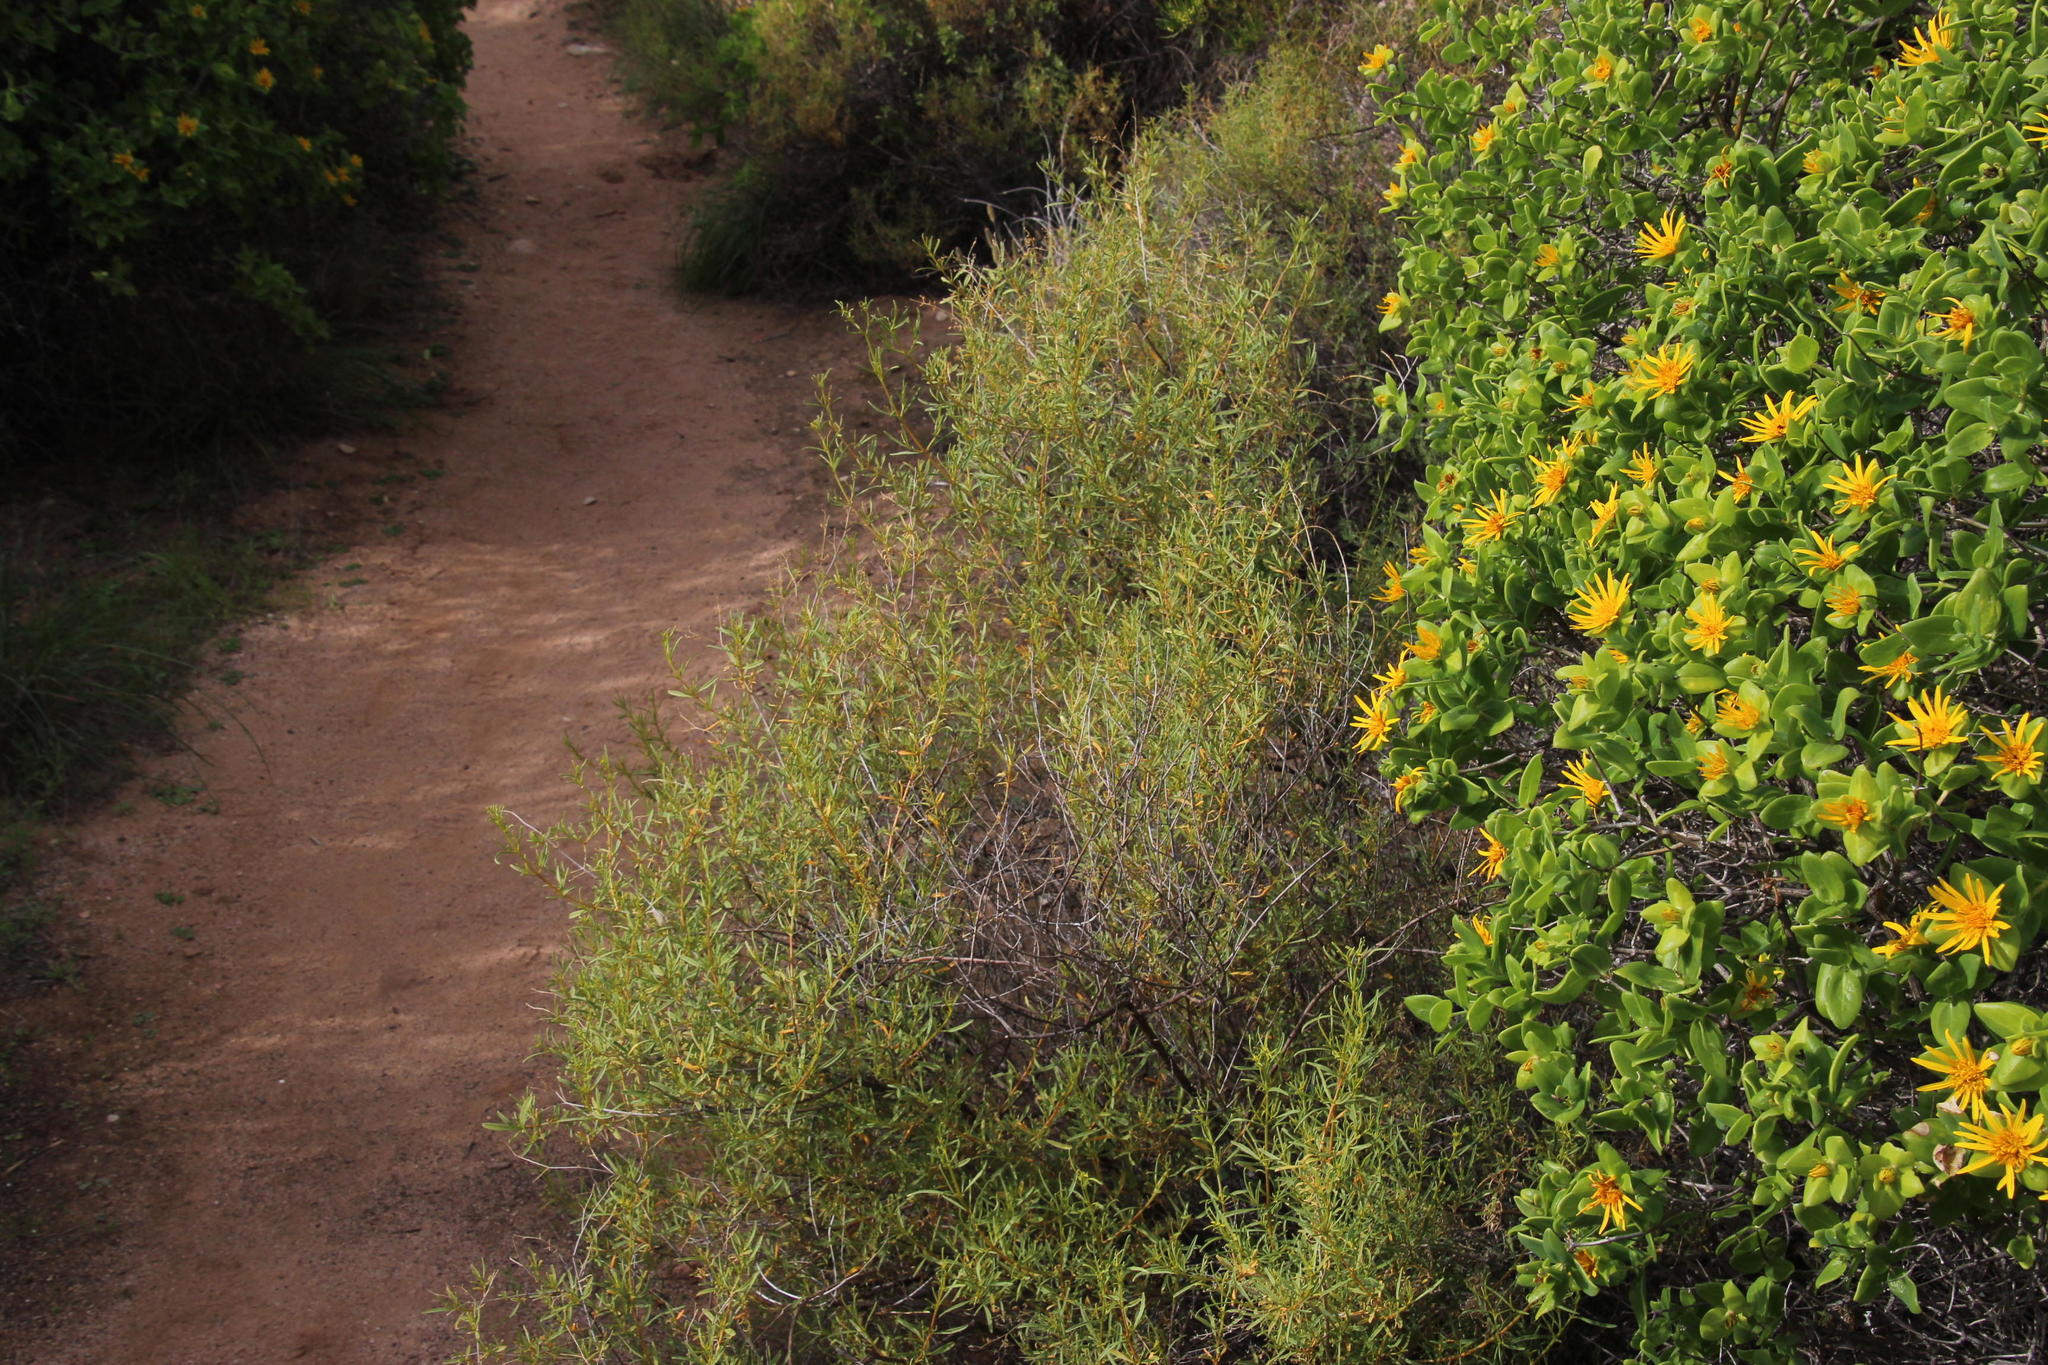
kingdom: Plantae
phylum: Tracheophyta
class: Magnoliopsida
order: Caryophyllales
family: Aizoaceae
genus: Aizoon
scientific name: Aizoon africanum
